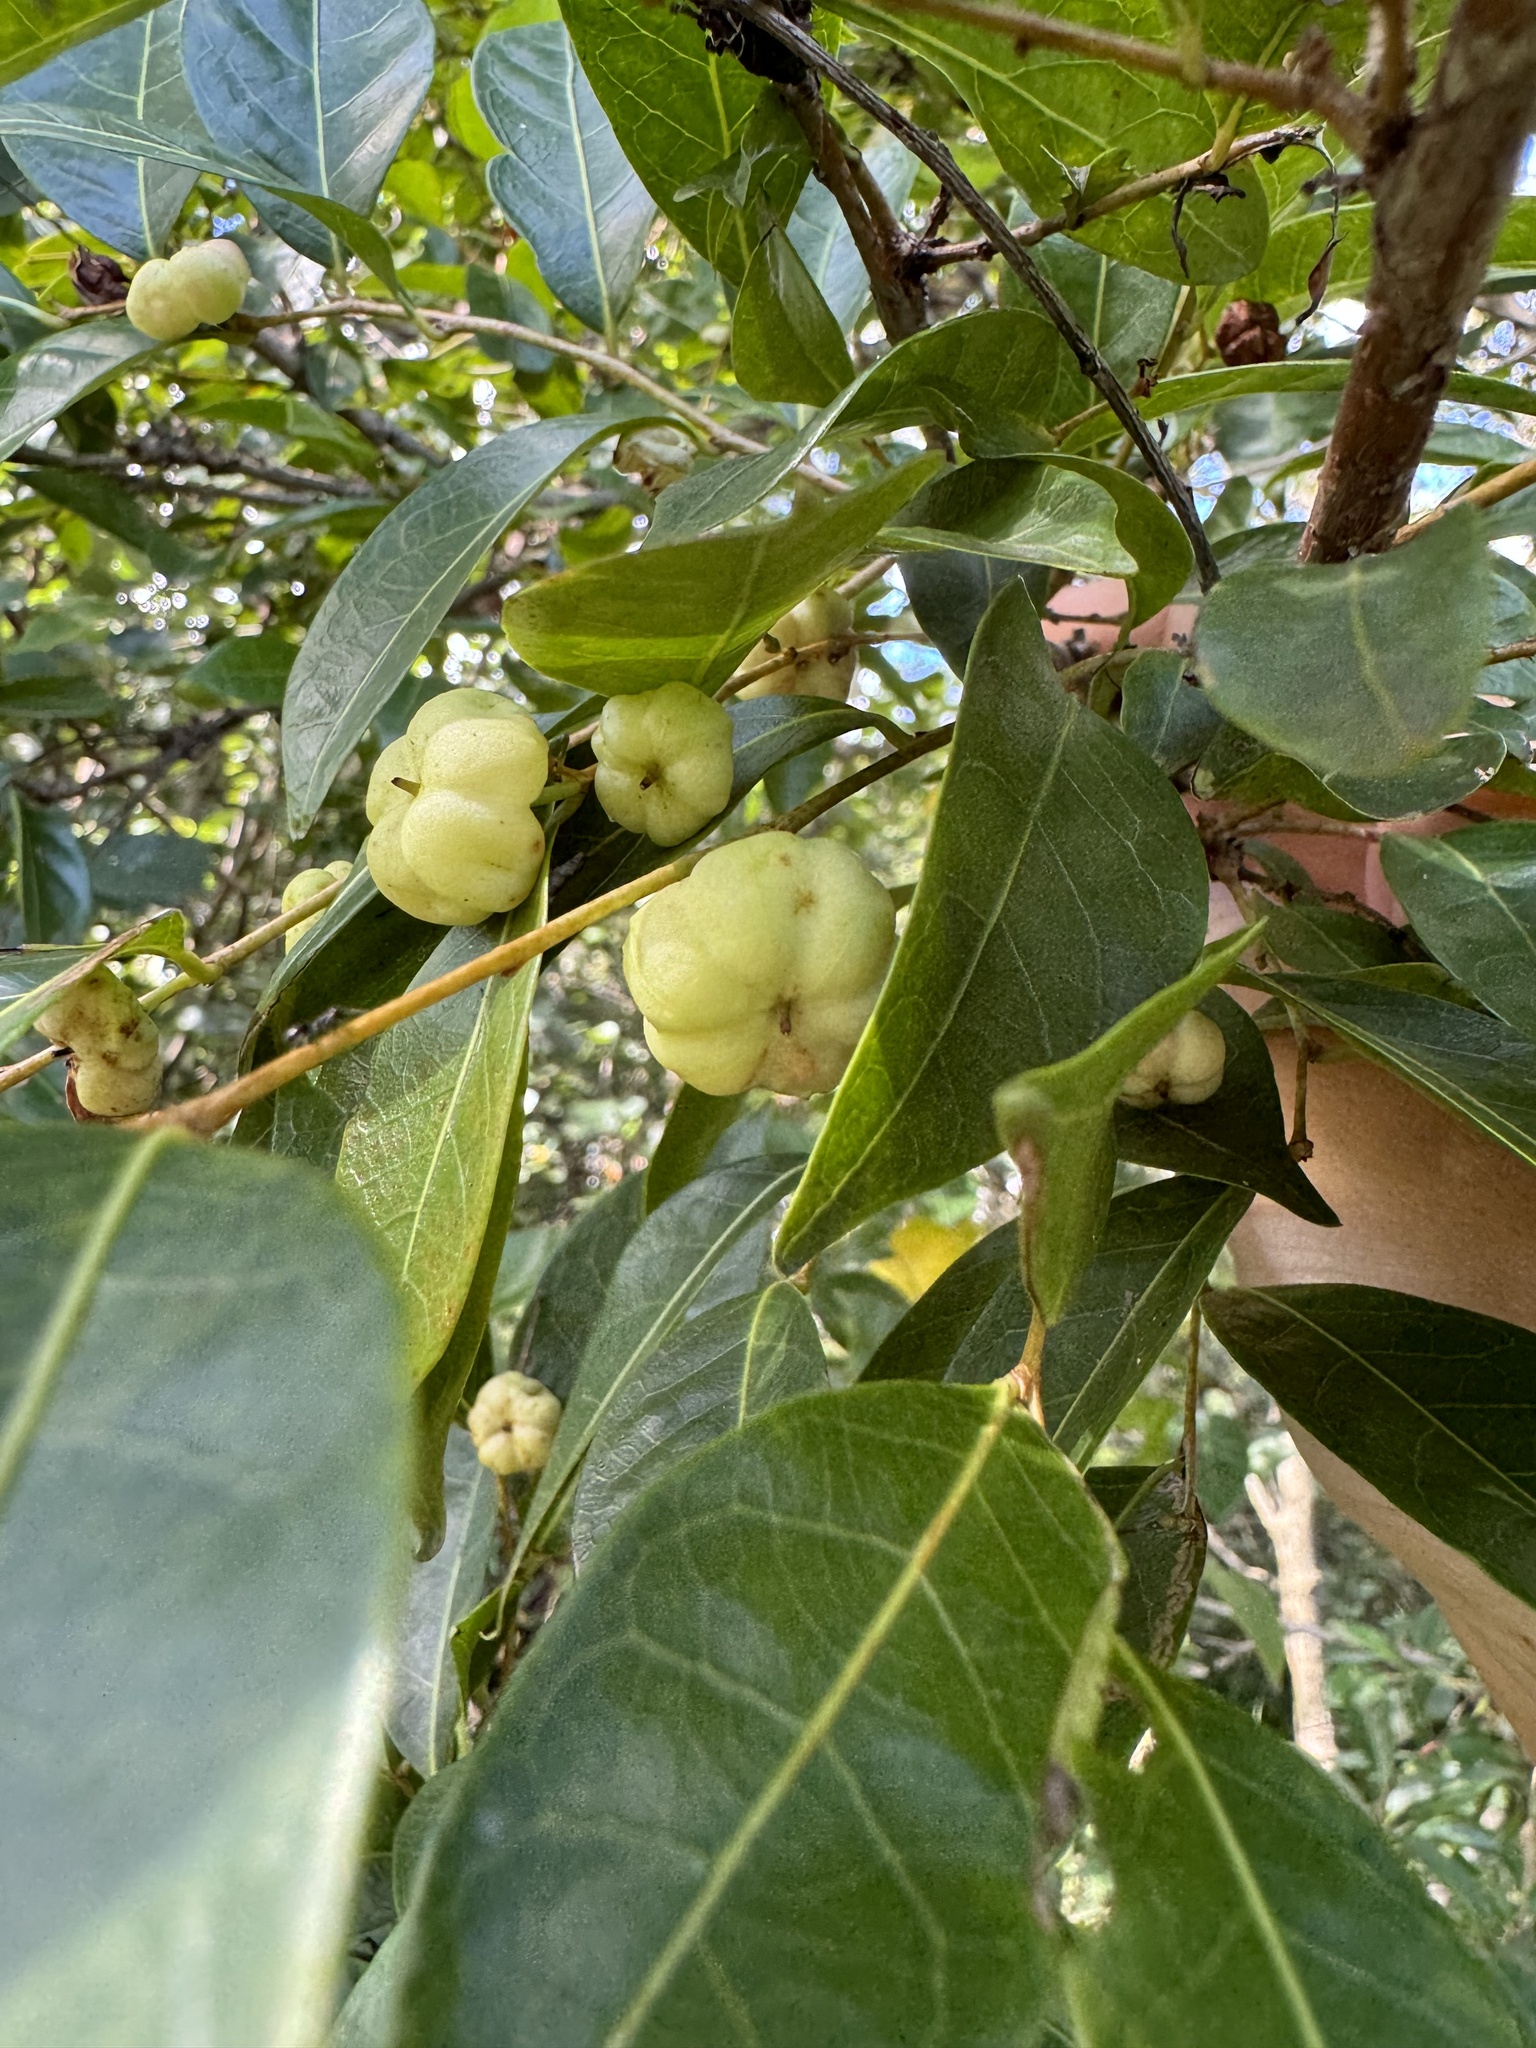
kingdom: Plantae
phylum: Tracheophyta
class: Magnoliopsida
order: Malpighiales
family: Phyllanthaceae
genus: Glochidion
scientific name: Glochidion ferdinandi
